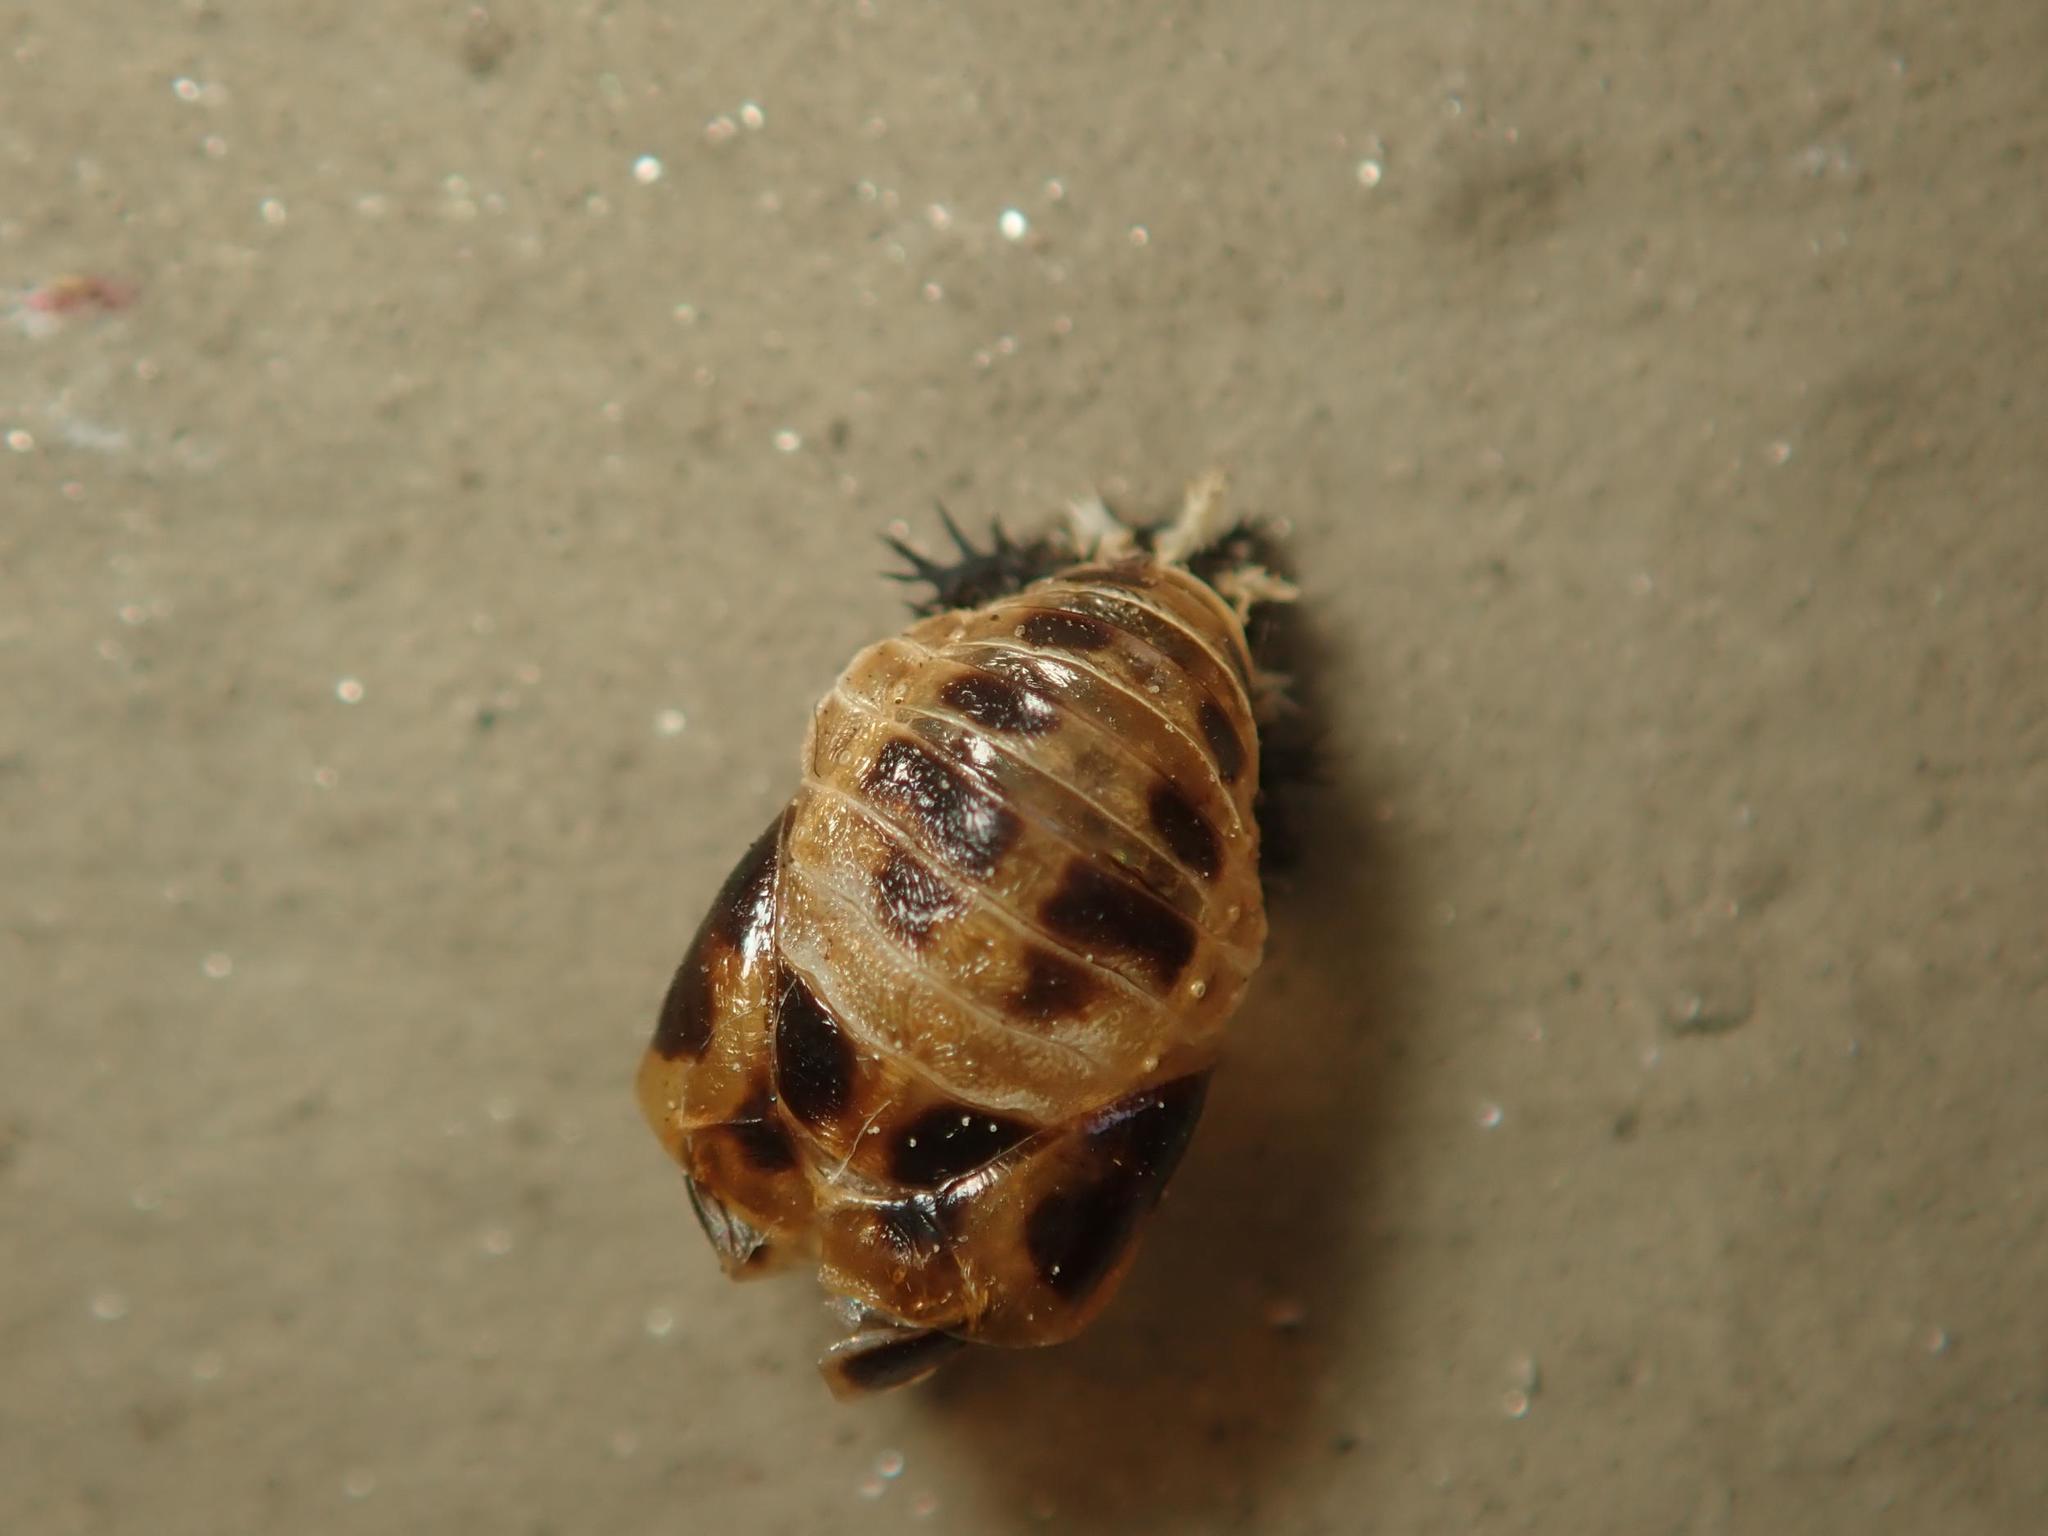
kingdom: Animalia
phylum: Arthropoda
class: Insecta
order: Coleoptera
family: Coccinellidae
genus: Harmonia
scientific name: Harmonia axyridis
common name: Harlequin ladybird
